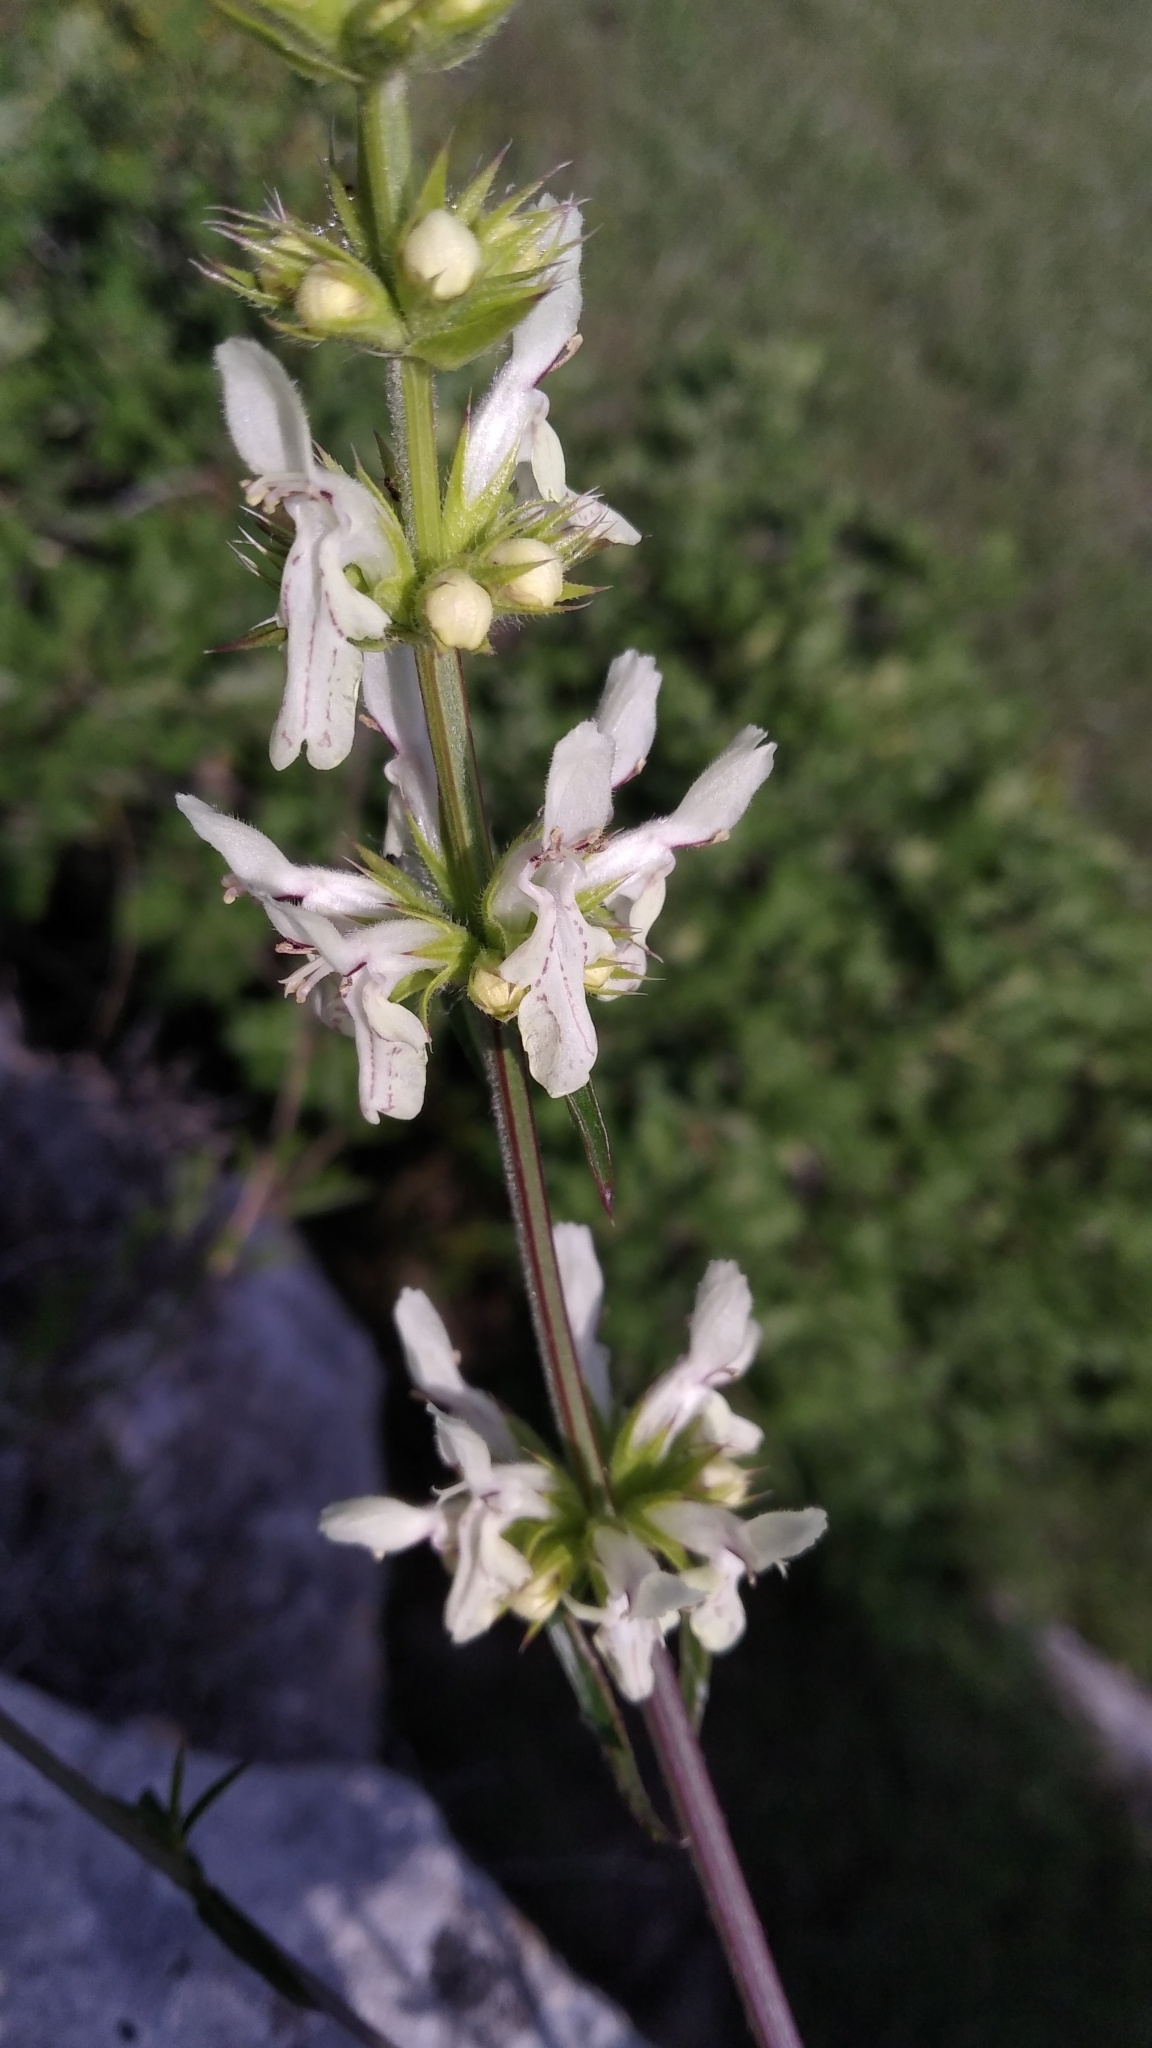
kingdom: Plantae
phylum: Tracheophyta
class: Magnoliopsida
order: Lamiales
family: Lamiaceae
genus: Stachys
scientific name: Stachys atherocalyx
